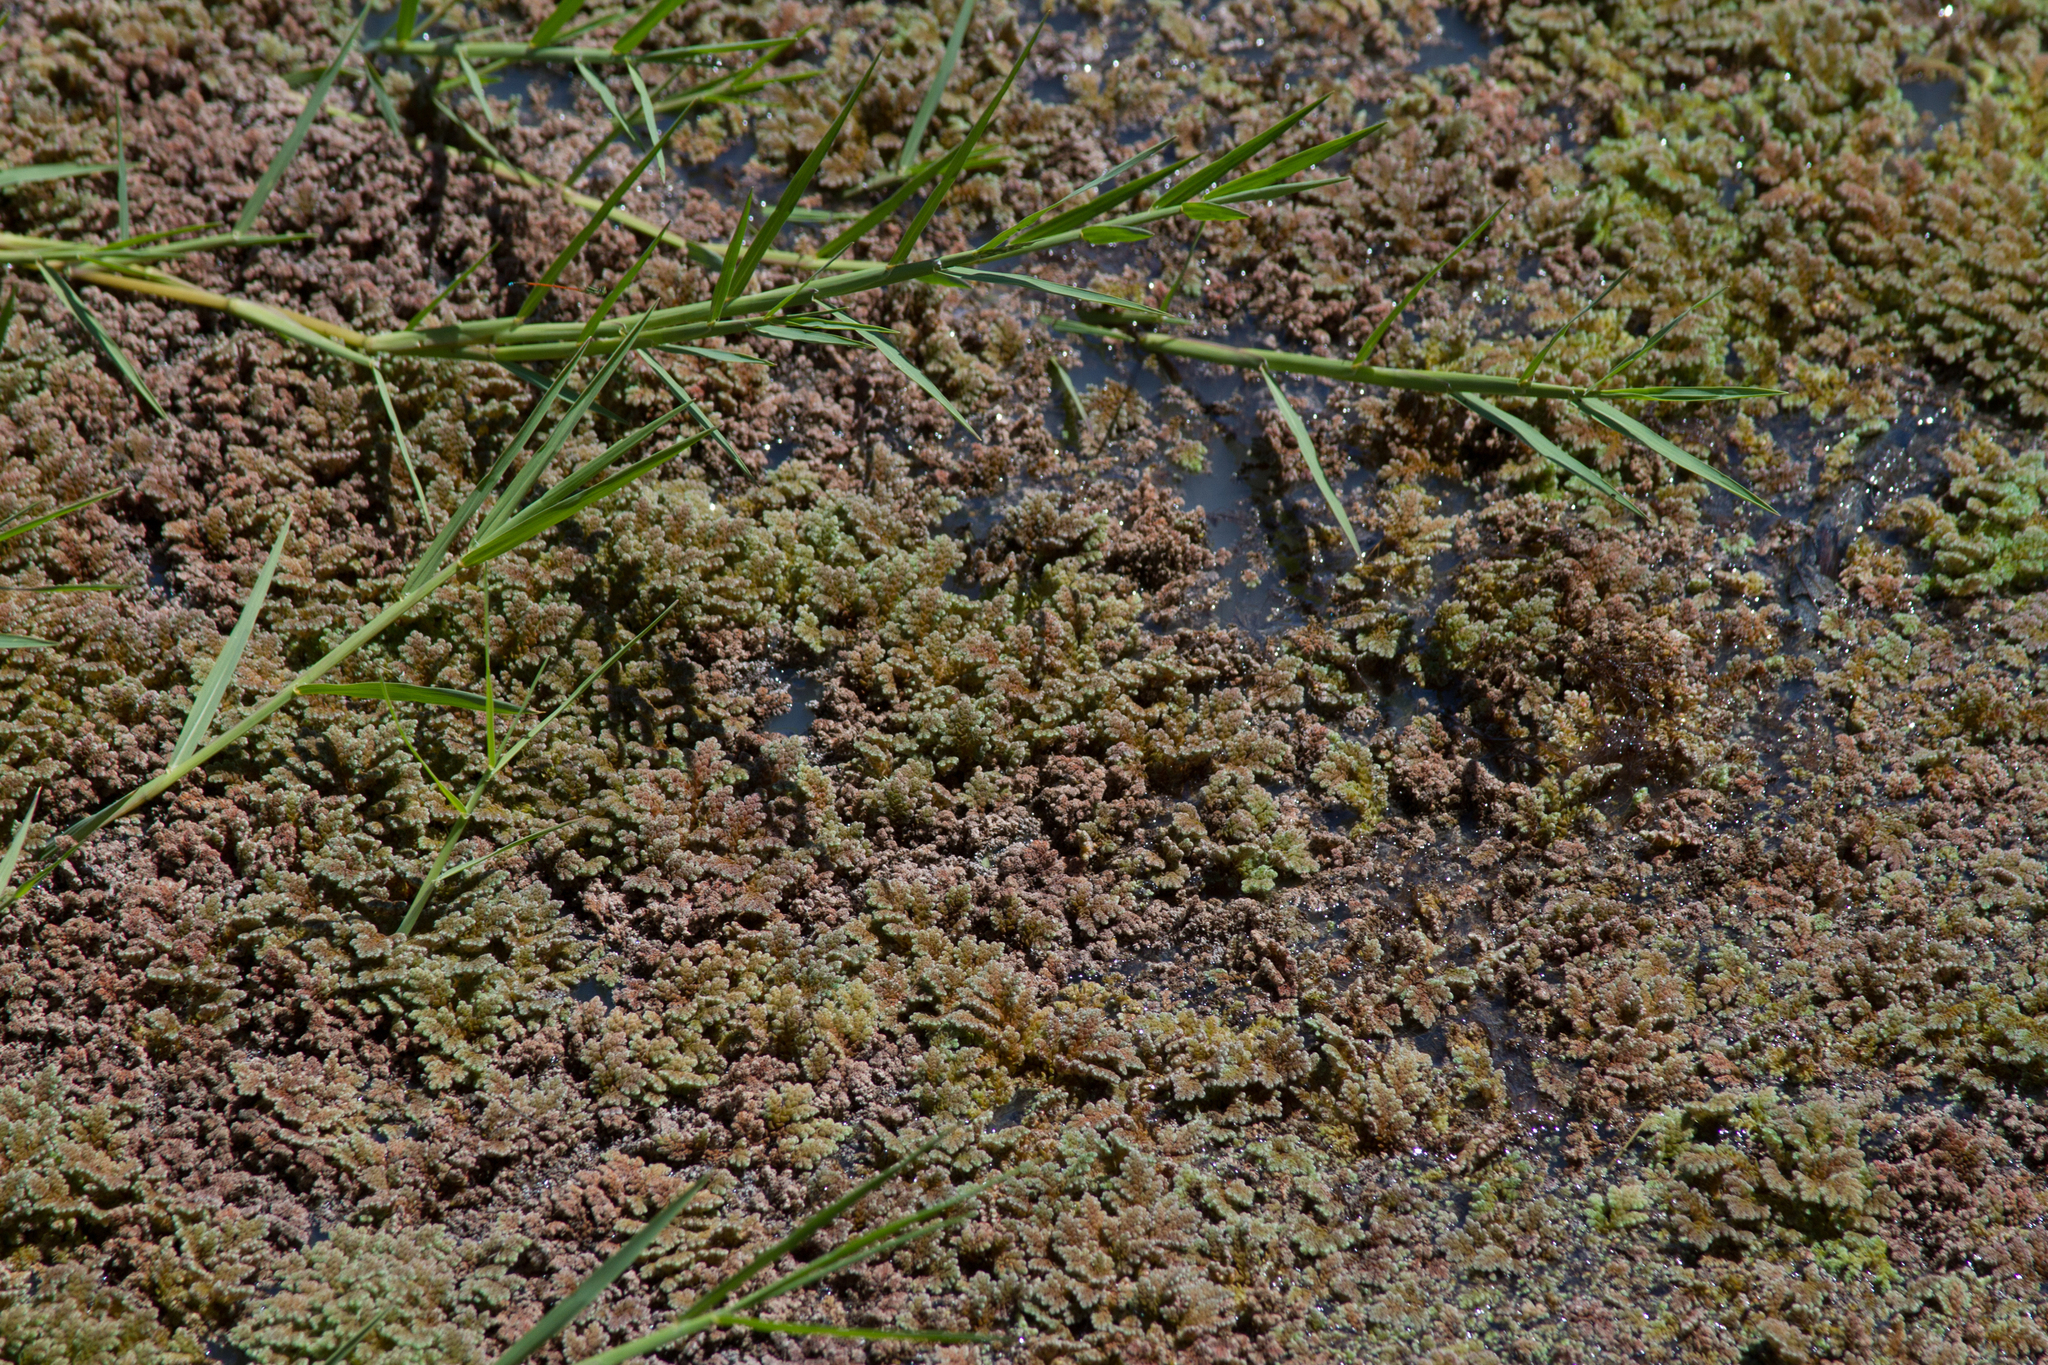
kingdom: Plantae
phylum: Tracheophyta
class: Polypodiopsida
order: Salviniales
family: Salviniaceae
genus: Azolla
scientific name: Azolla rubra
